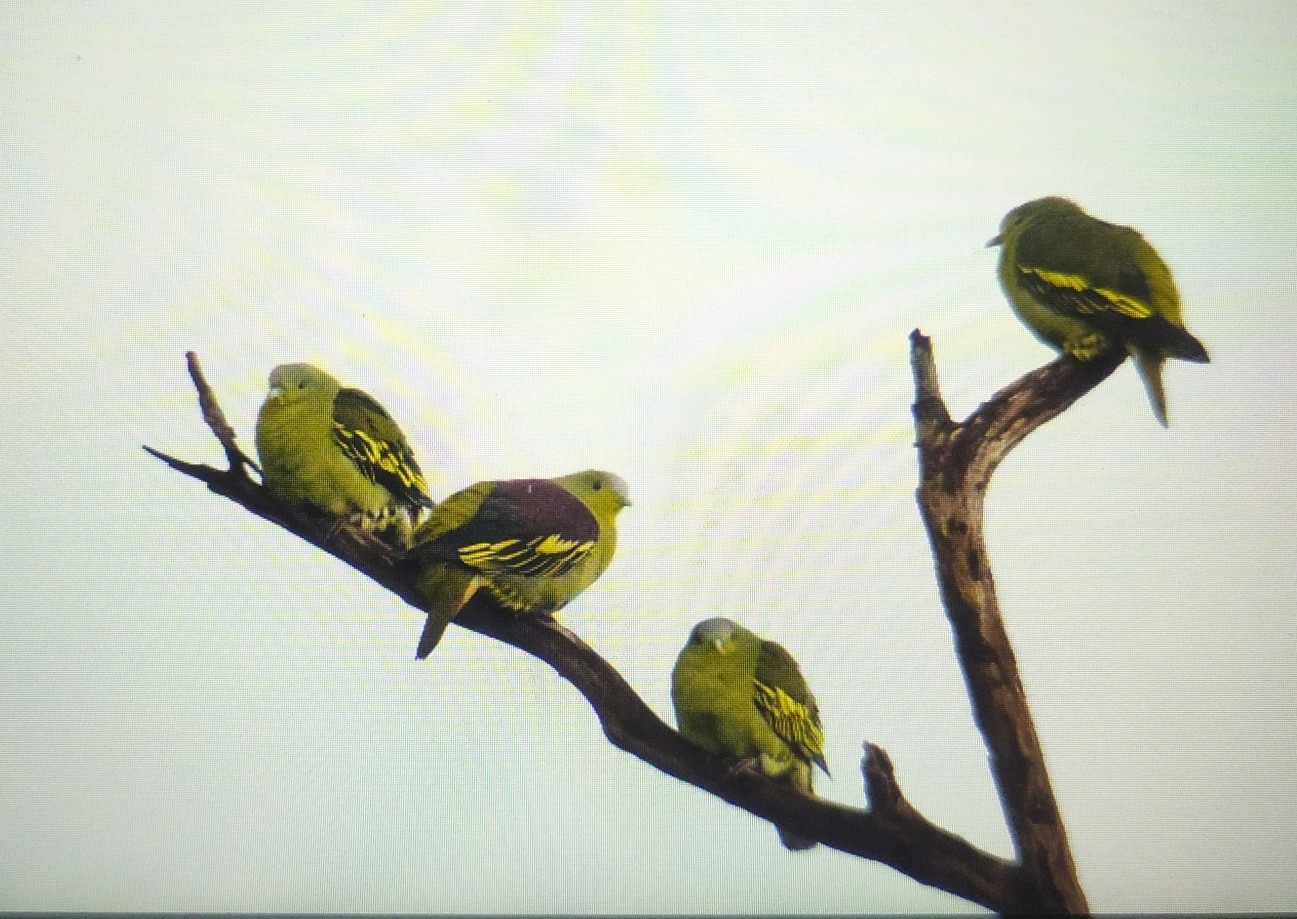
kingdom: Animalia
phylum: Chordata
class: Aves
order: Columbiformes
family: Columbidae
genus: Treron
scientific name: Treron affinis
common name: Grey-fronted green pigeon
